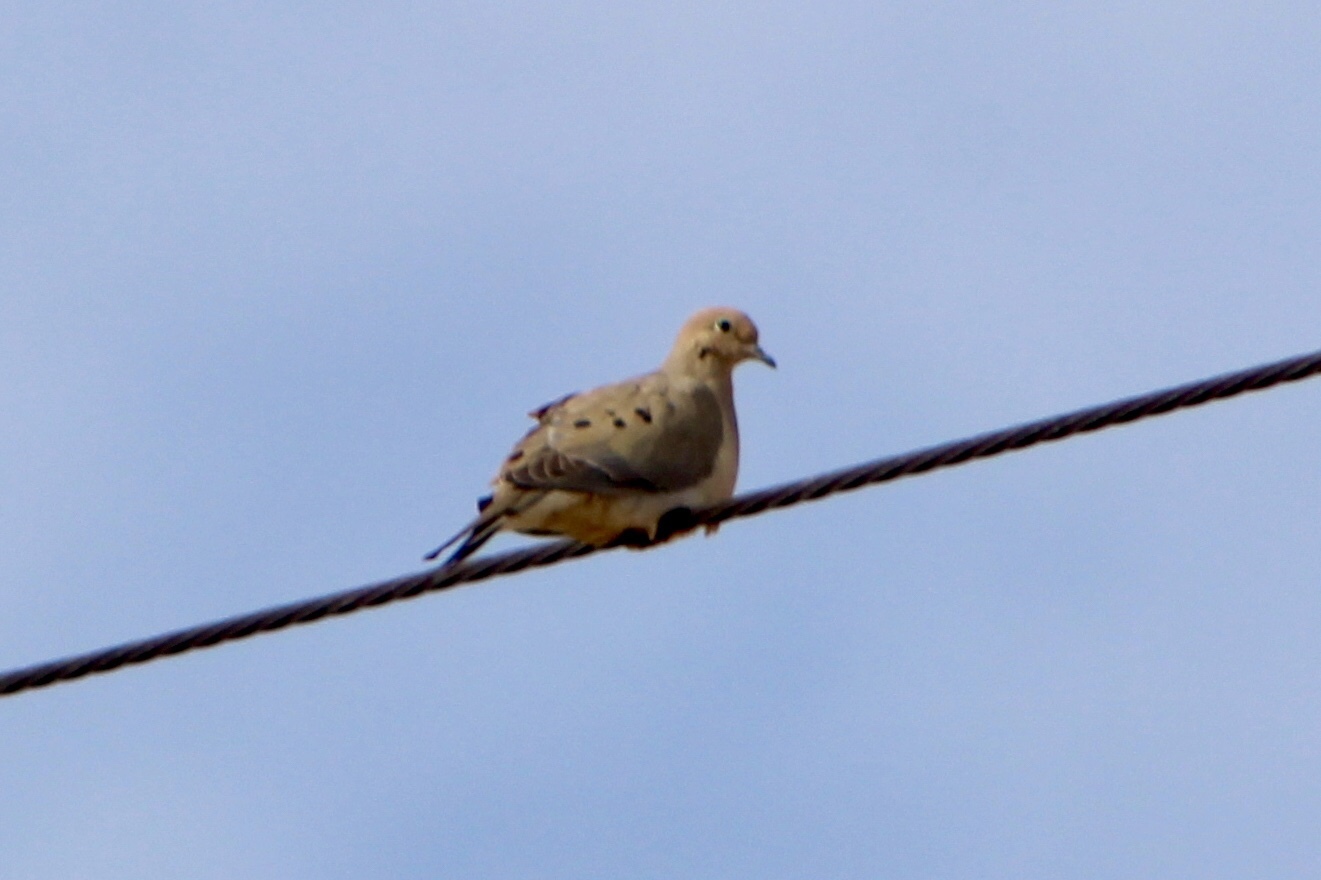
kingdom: Animalia
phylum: Chordata
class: Aves
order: Columbiformes
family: Columbidae
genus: Zenaida
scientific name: Zenaida macroura
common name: Mourning dove
